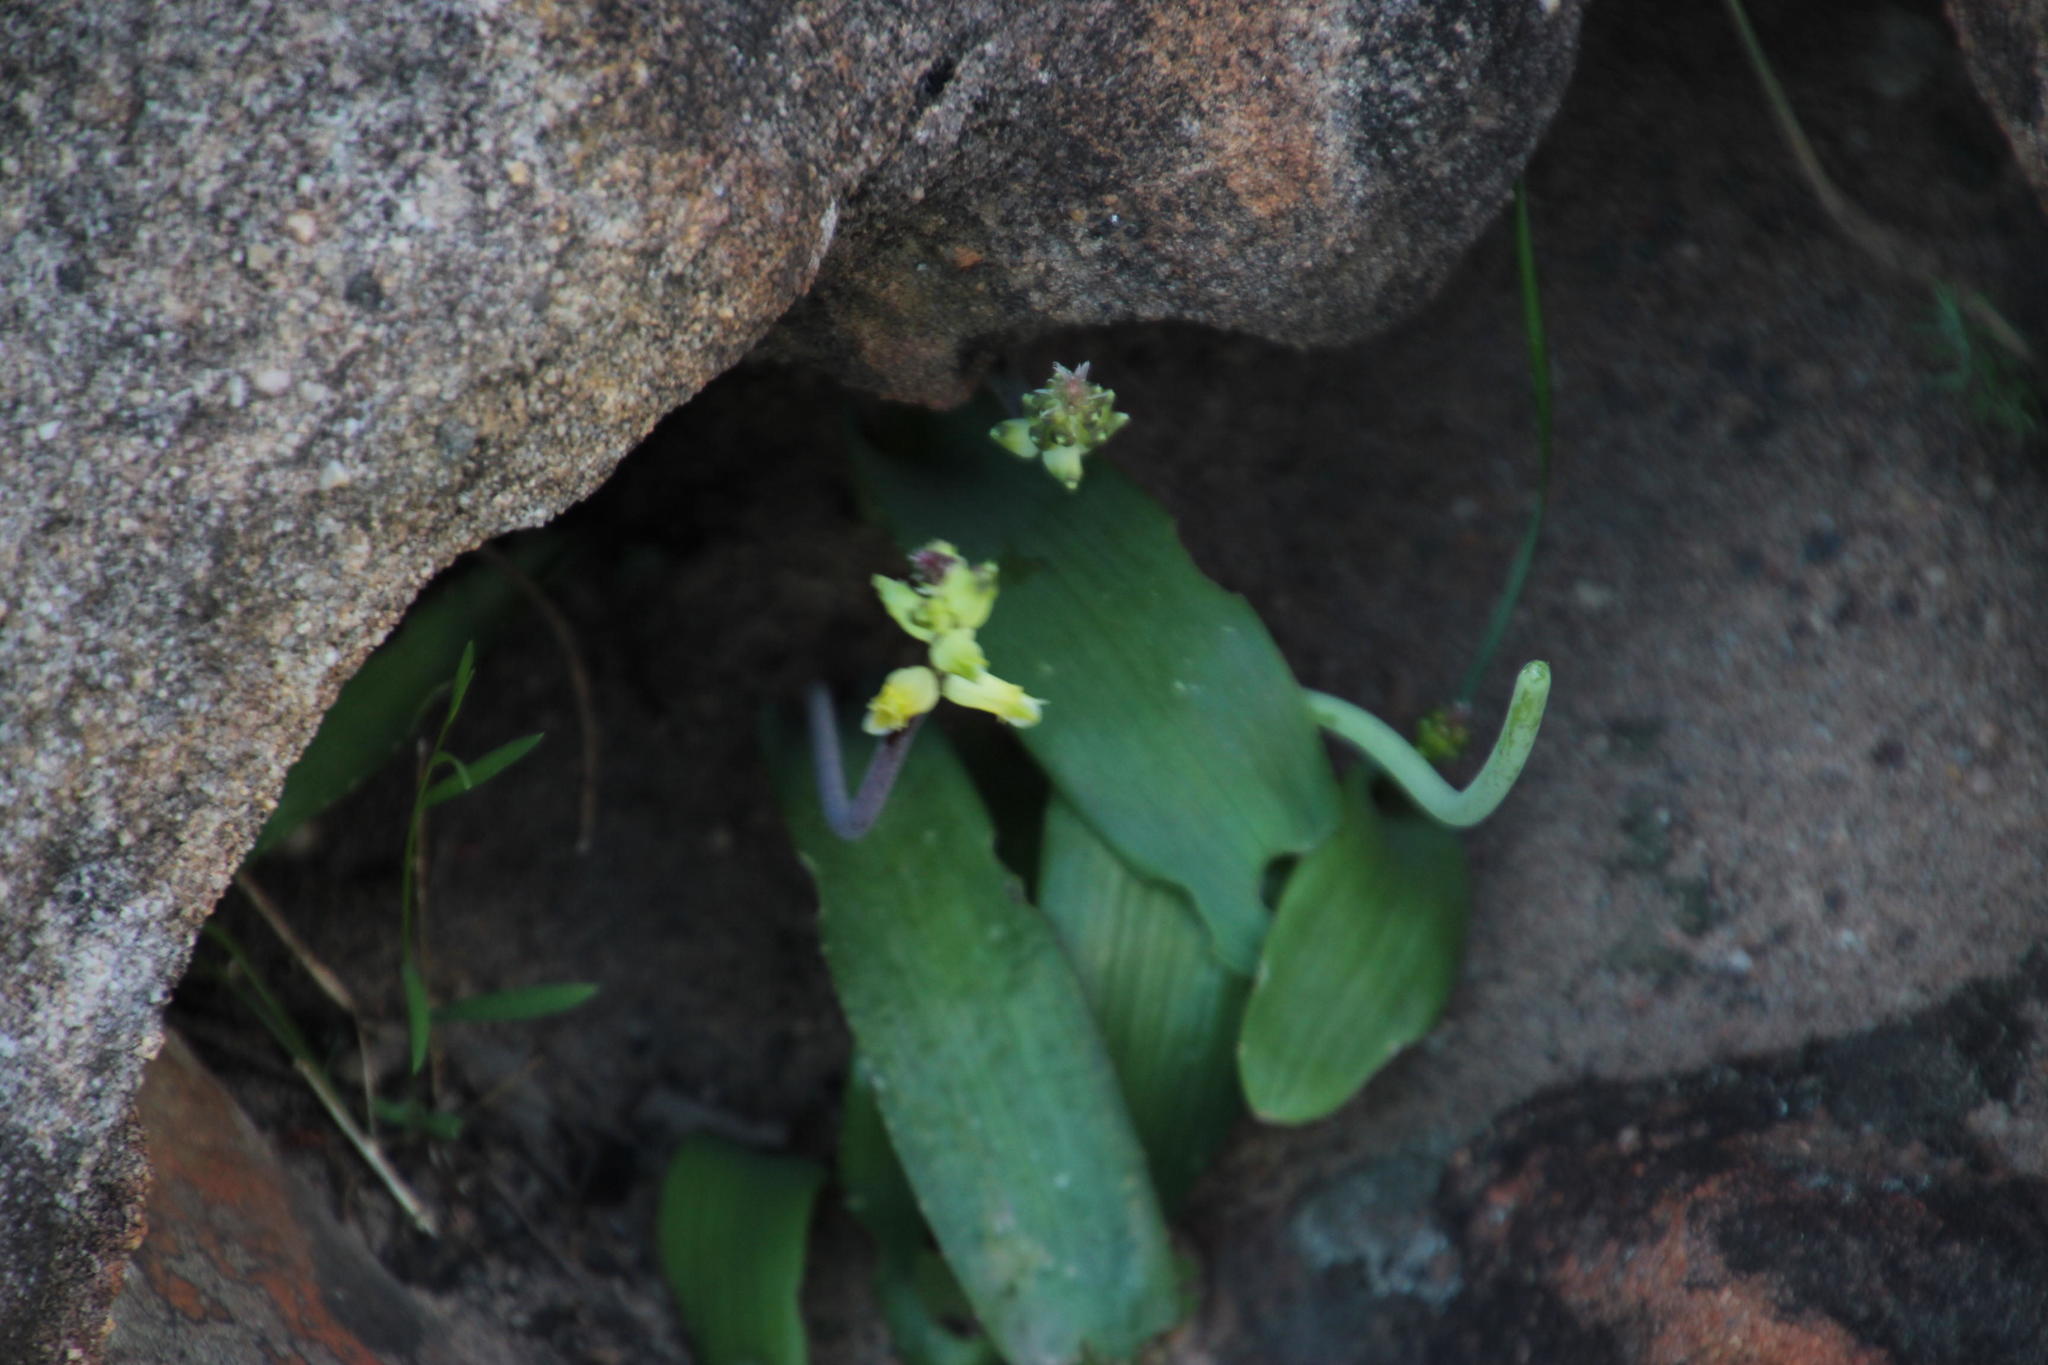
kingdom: Plantae
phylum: Tracheophyta
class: Liliopsida
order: Asparagales
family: Asparagaceae
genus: Lachenalia
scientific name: Lachenalia lutea
